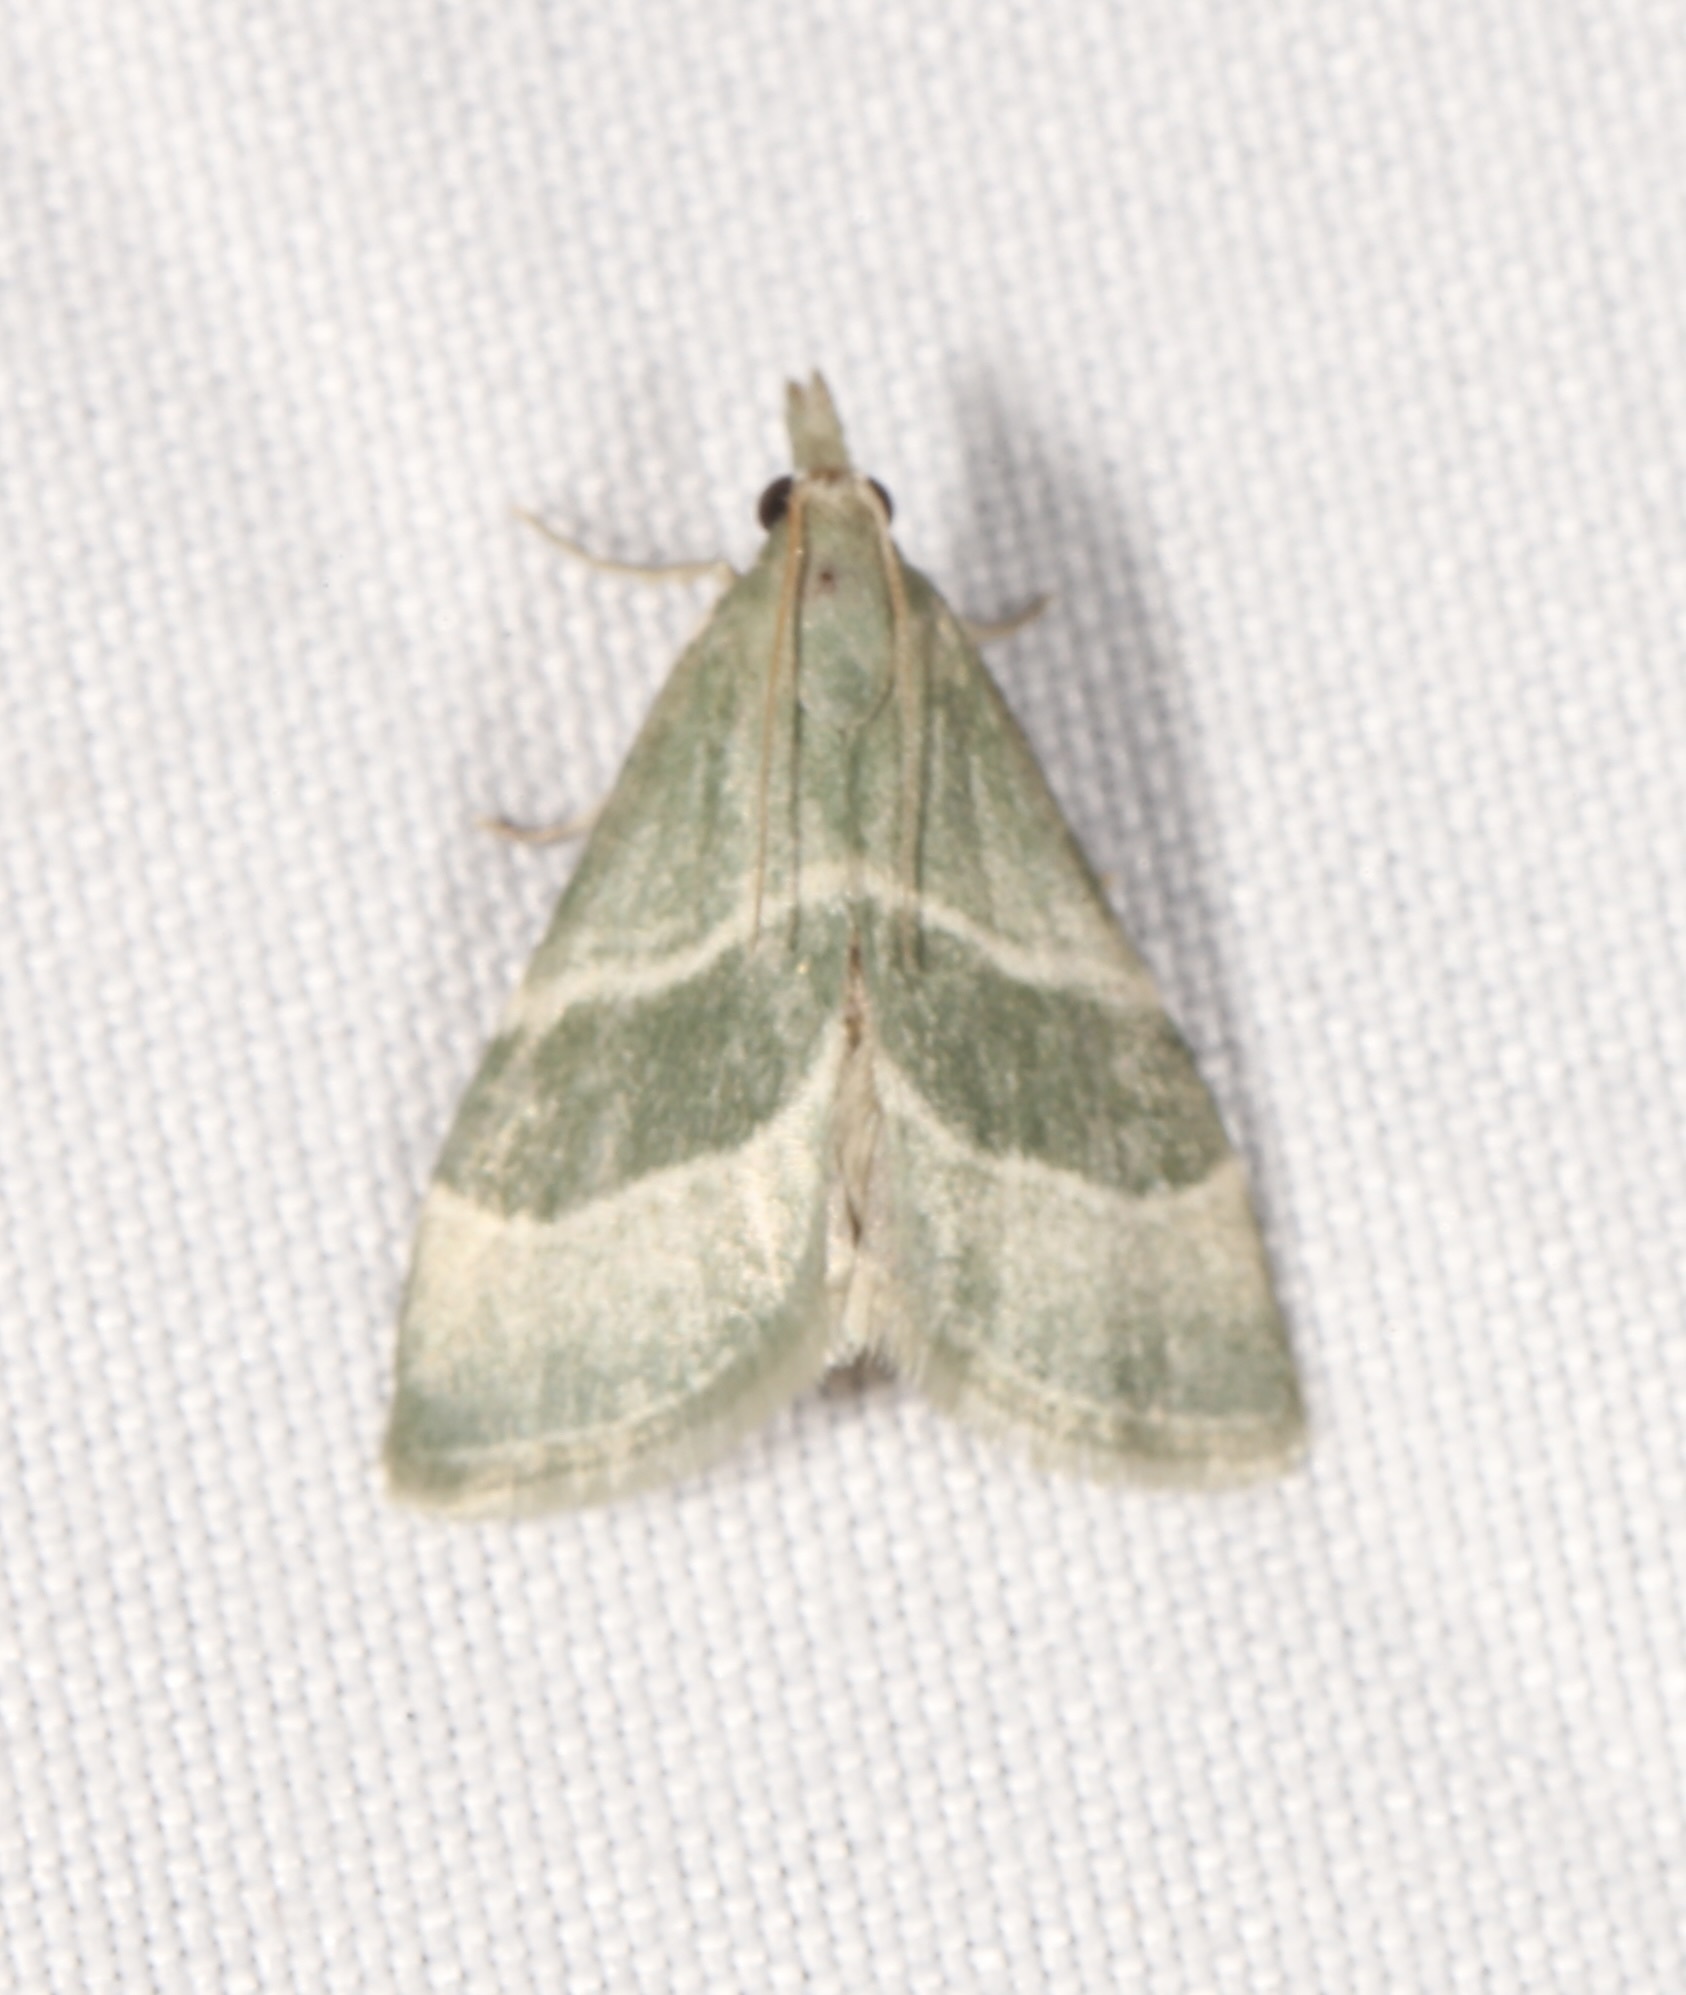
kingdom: Animalia
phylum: Arthropoda
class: Insecta
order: Lepidoptera
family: Pyralidae
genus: Anemosella
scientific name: Anemosella viridalis
